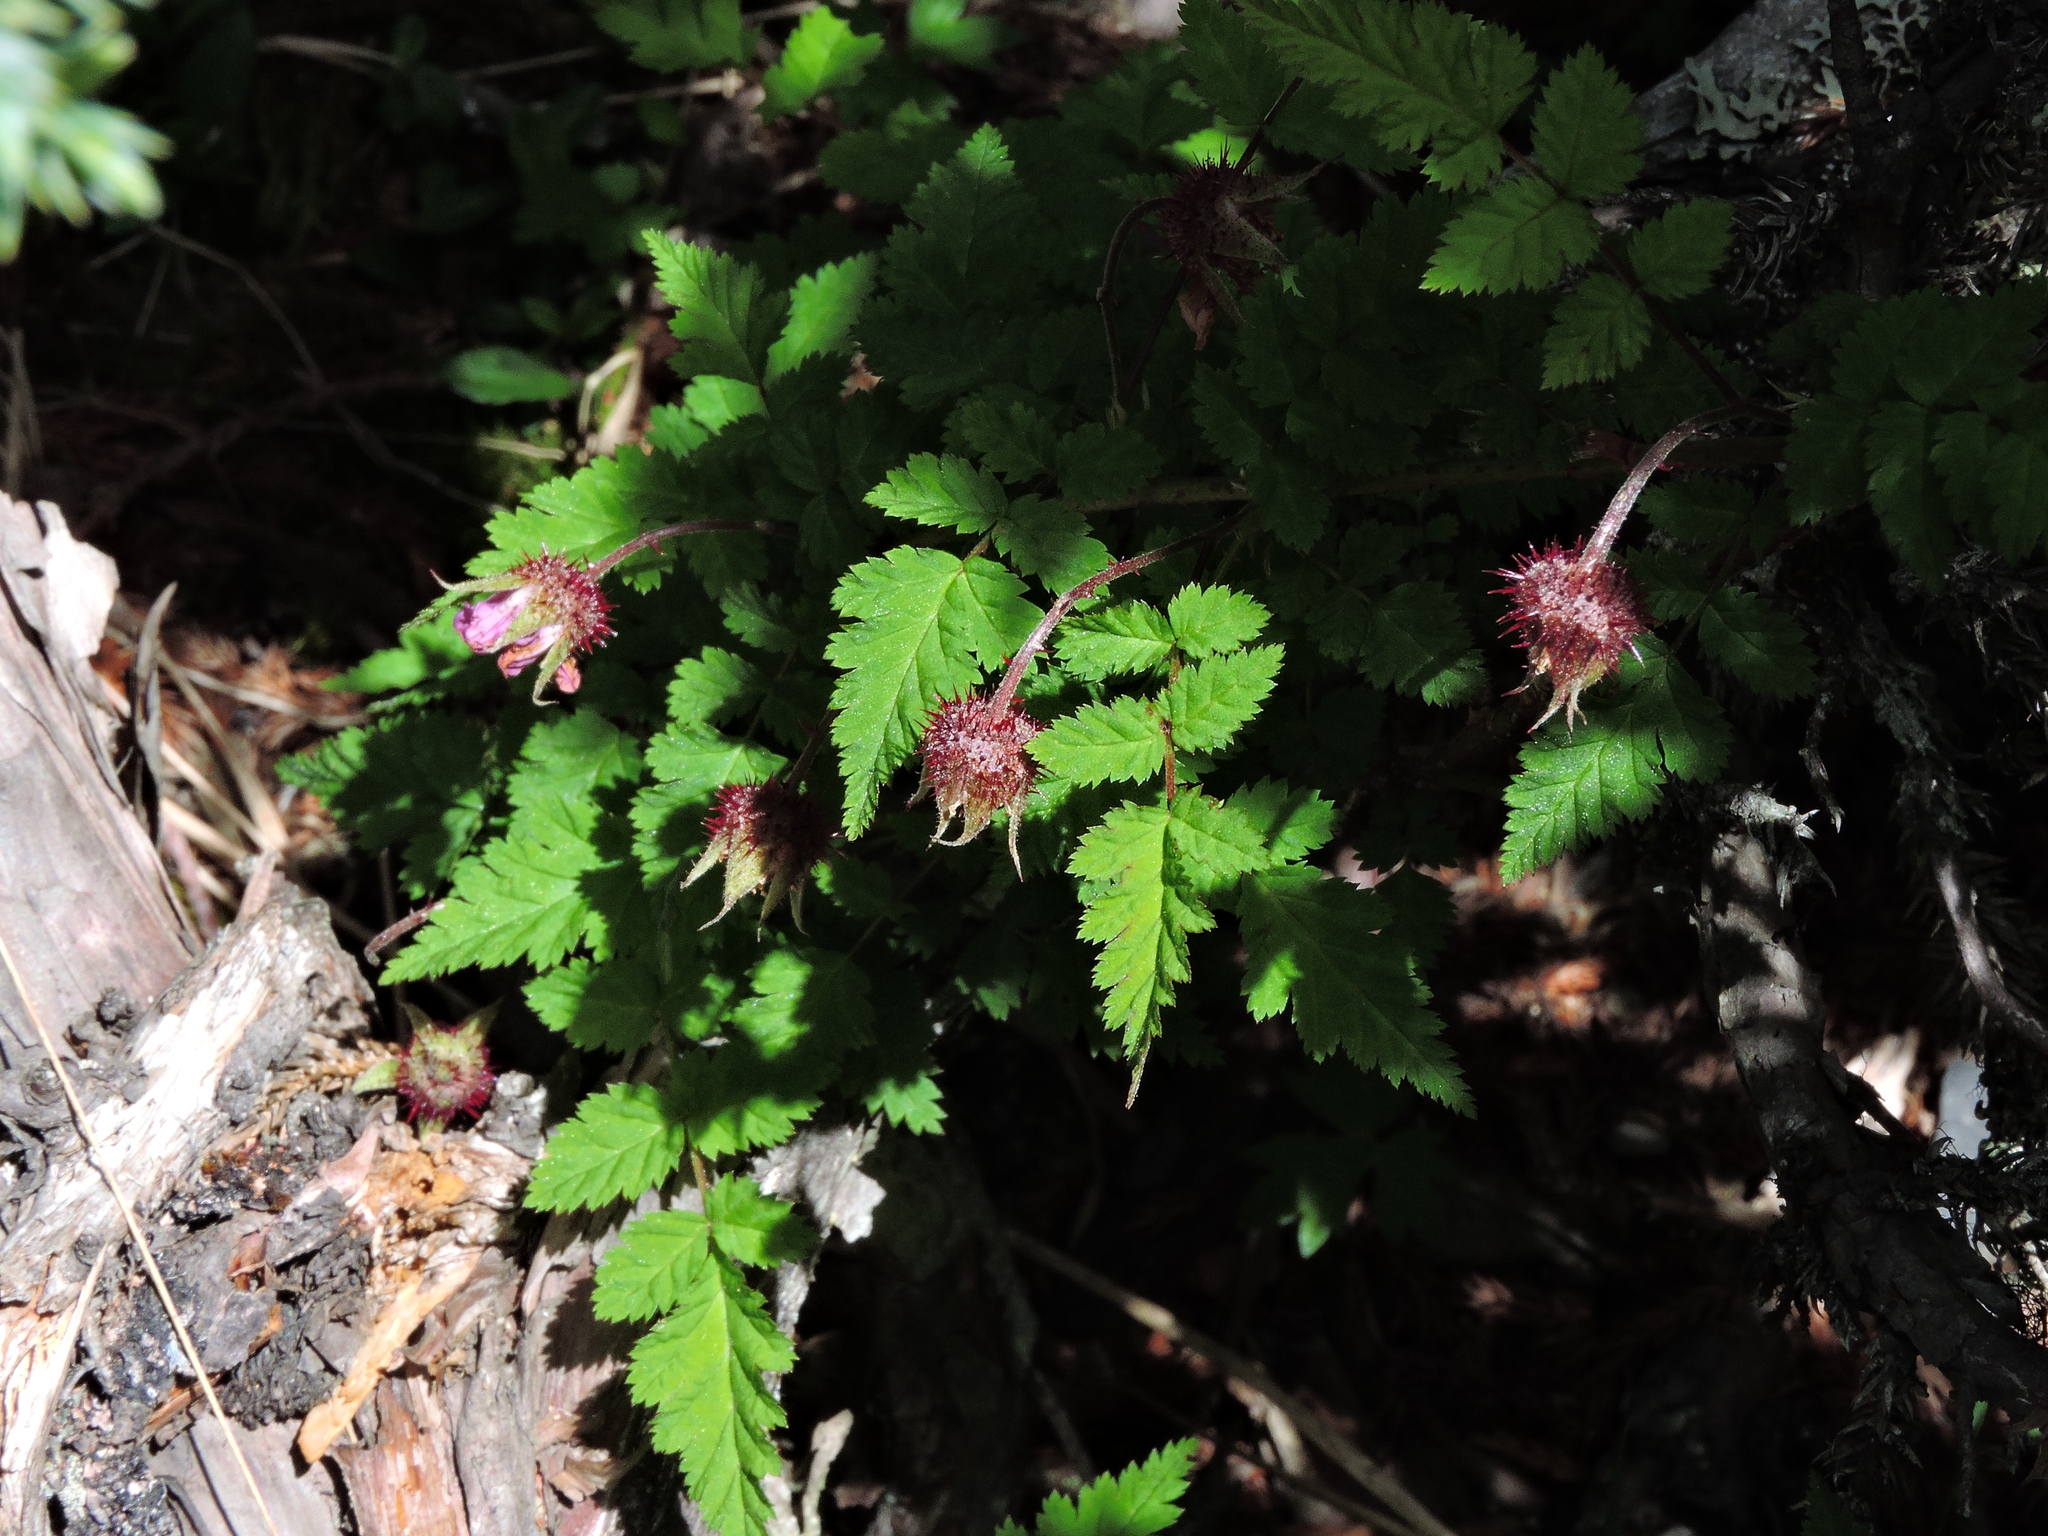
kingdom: Plantae
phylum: Tracheophyta
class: Magnoliopsida
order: Rosales
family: Rosaceae
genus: Rubus
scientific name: Rubus pungens
